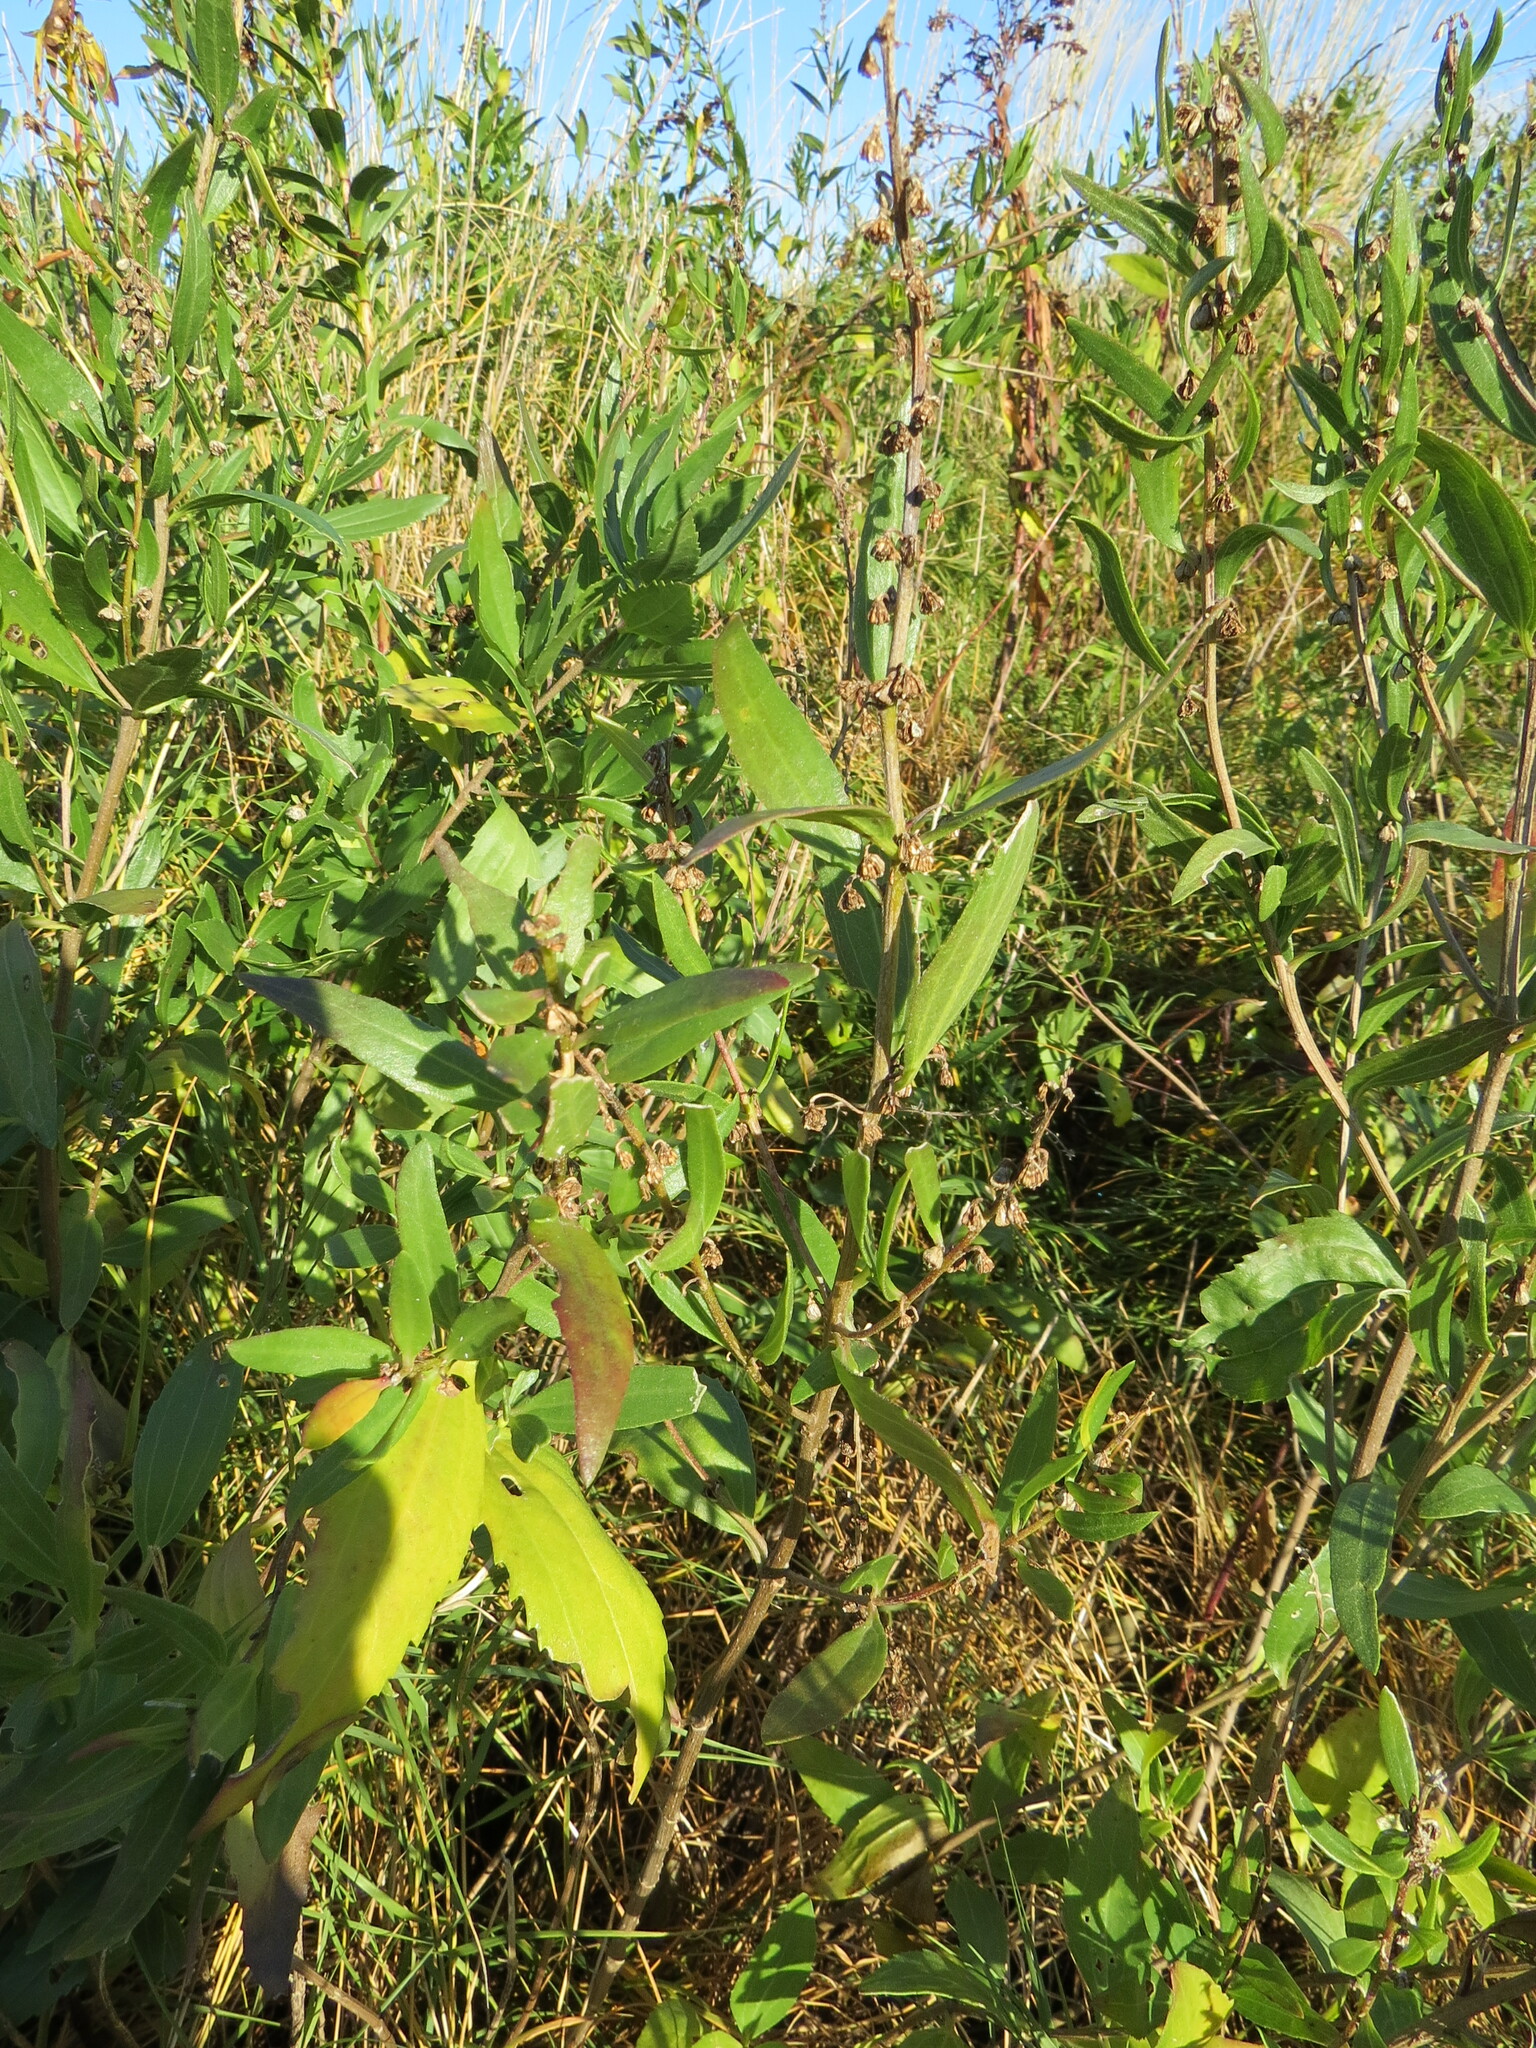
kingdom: Plantae
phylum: Tracheophyta
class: Magnoliopsida
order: Asterales
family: Asteraceae
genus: Iva
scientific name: Iva frutescens
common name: Big-leaved marsh-elder
